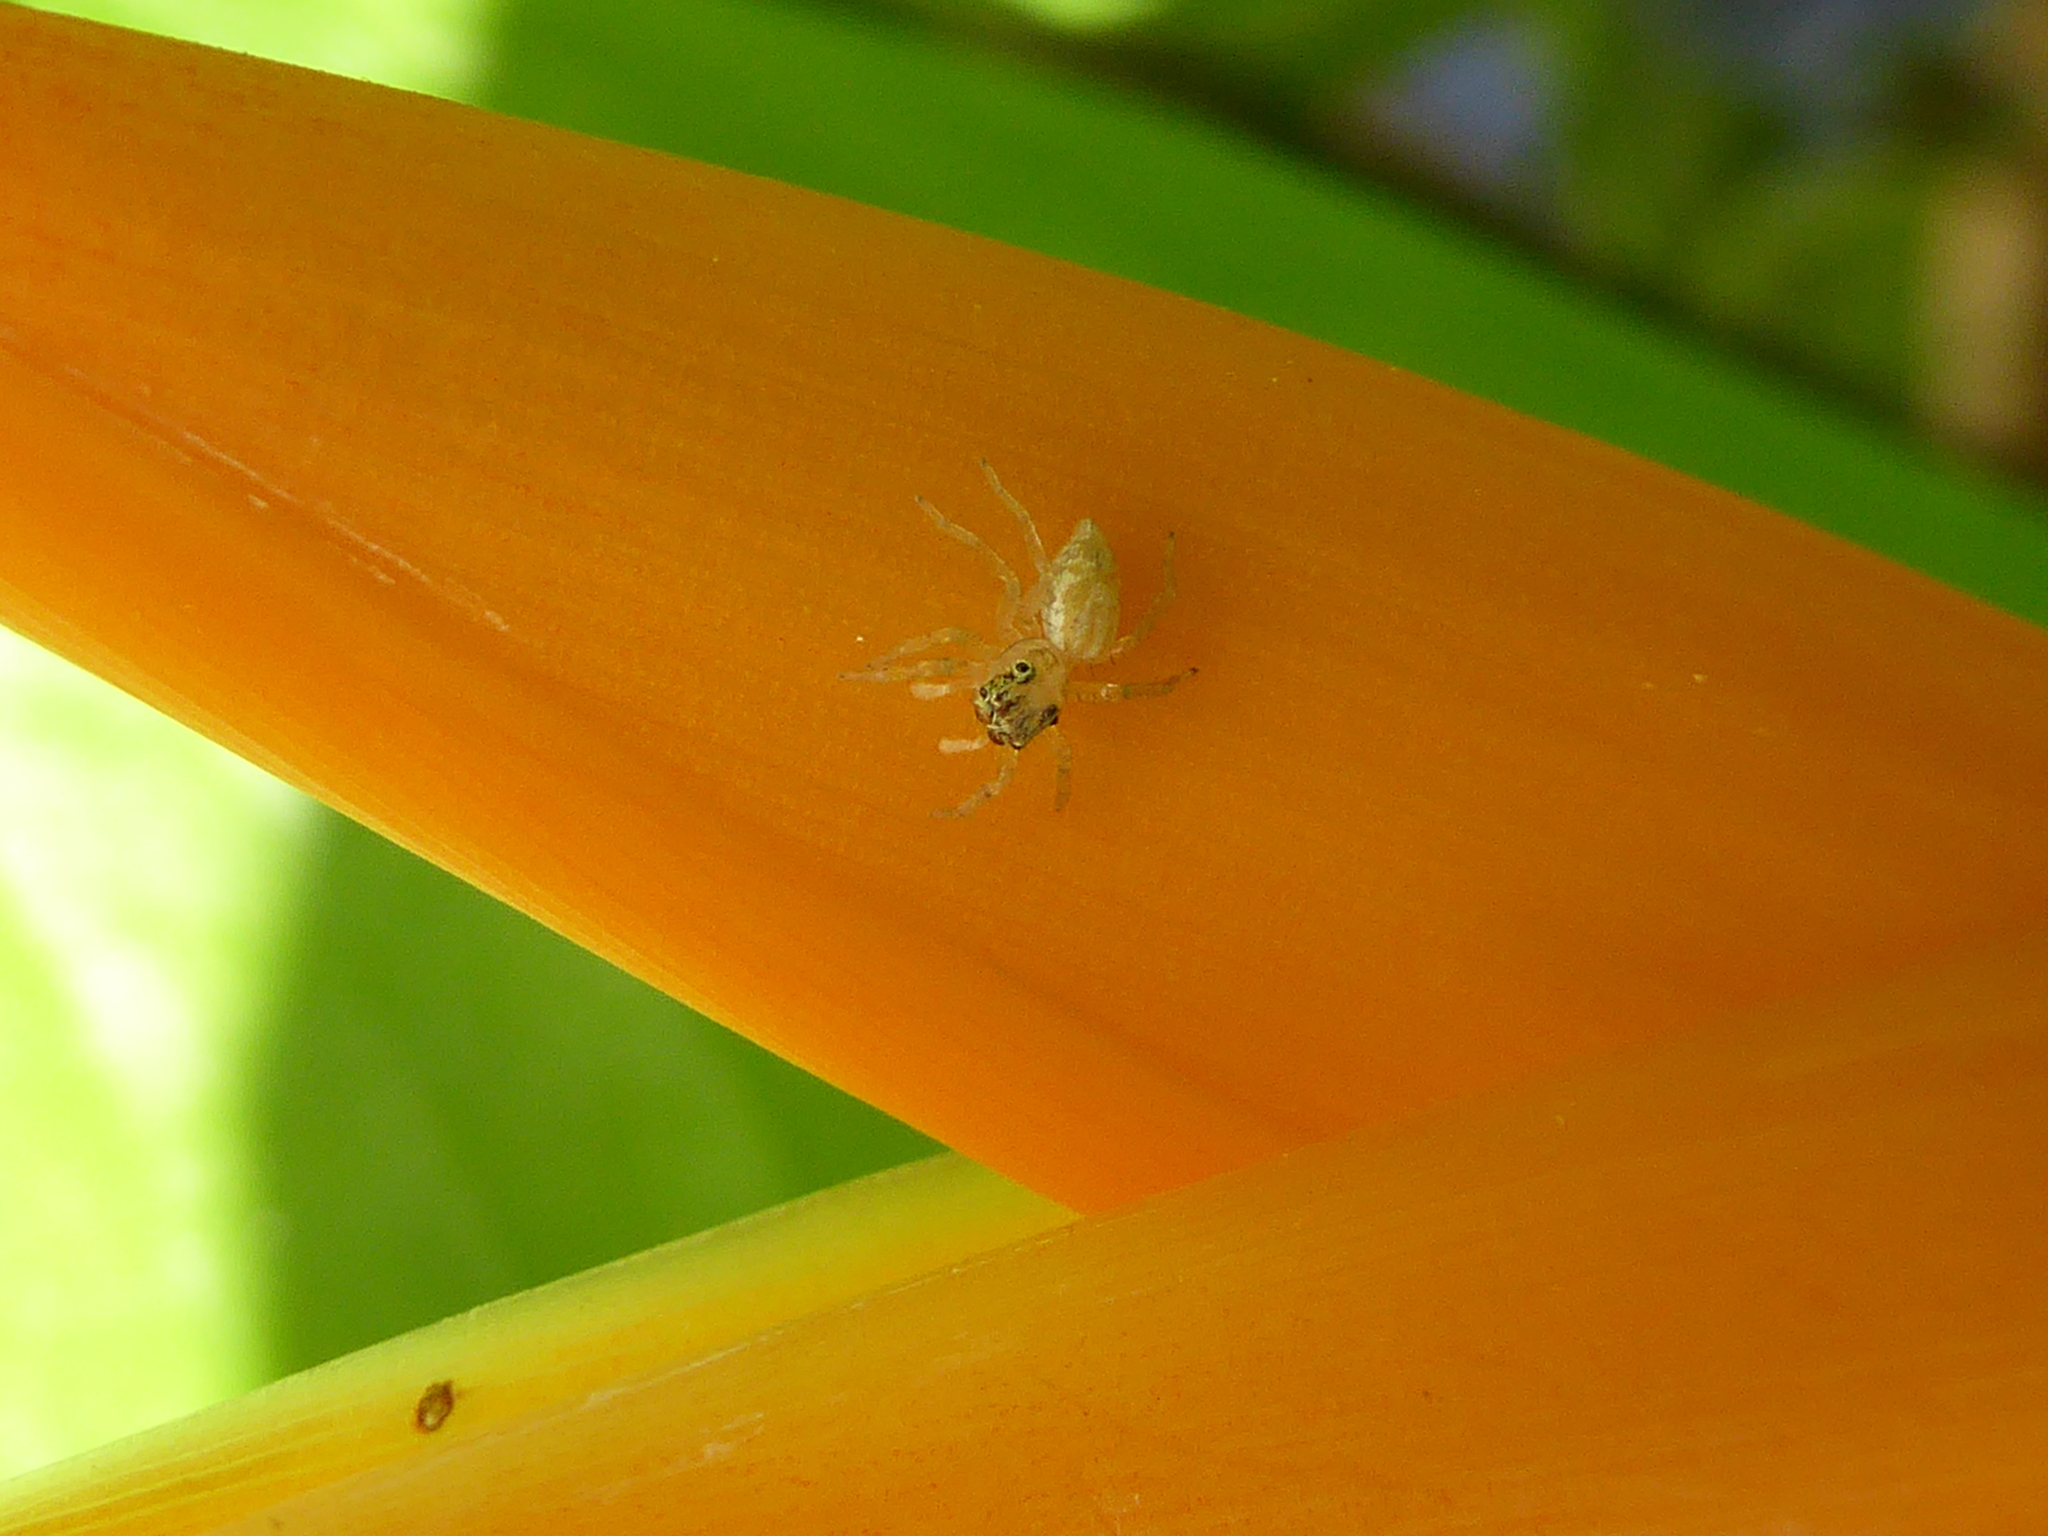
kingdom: Animalia
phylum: Arthropoda
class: Arachnida
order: Araneae
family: Salticidae
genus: Phintelloides
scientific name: Phintelloides versicolor
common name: Jumping spider
